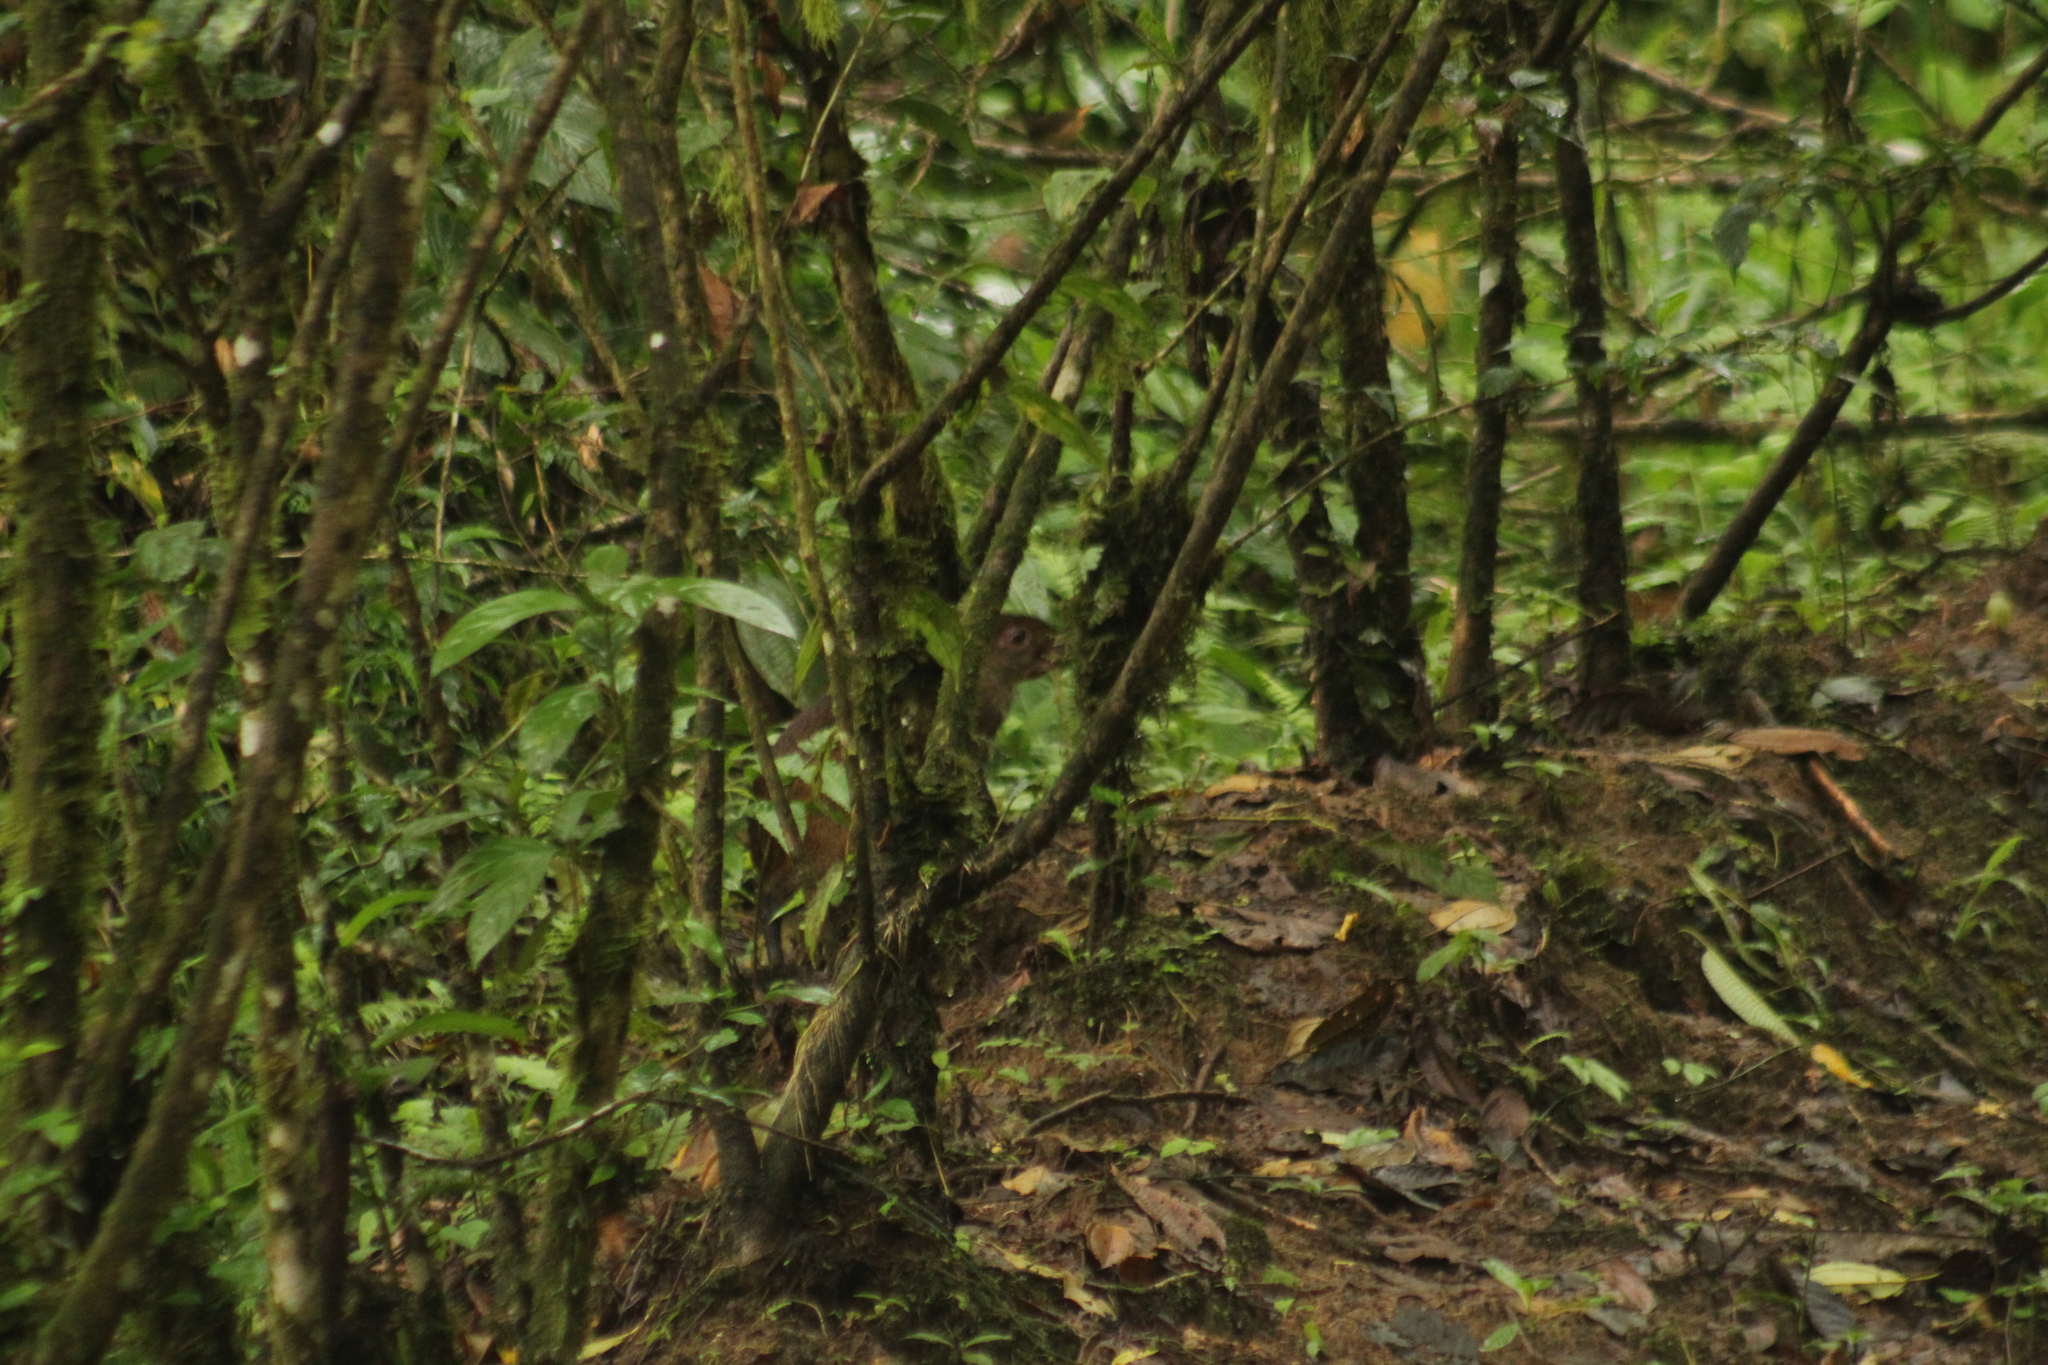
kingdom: Animalia
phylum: Chordata
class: Mammalia
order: Rodentia
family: Dasyproctidae
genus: Dasyprocta
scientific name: Dasyprocta punctata
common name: Central american agouti
